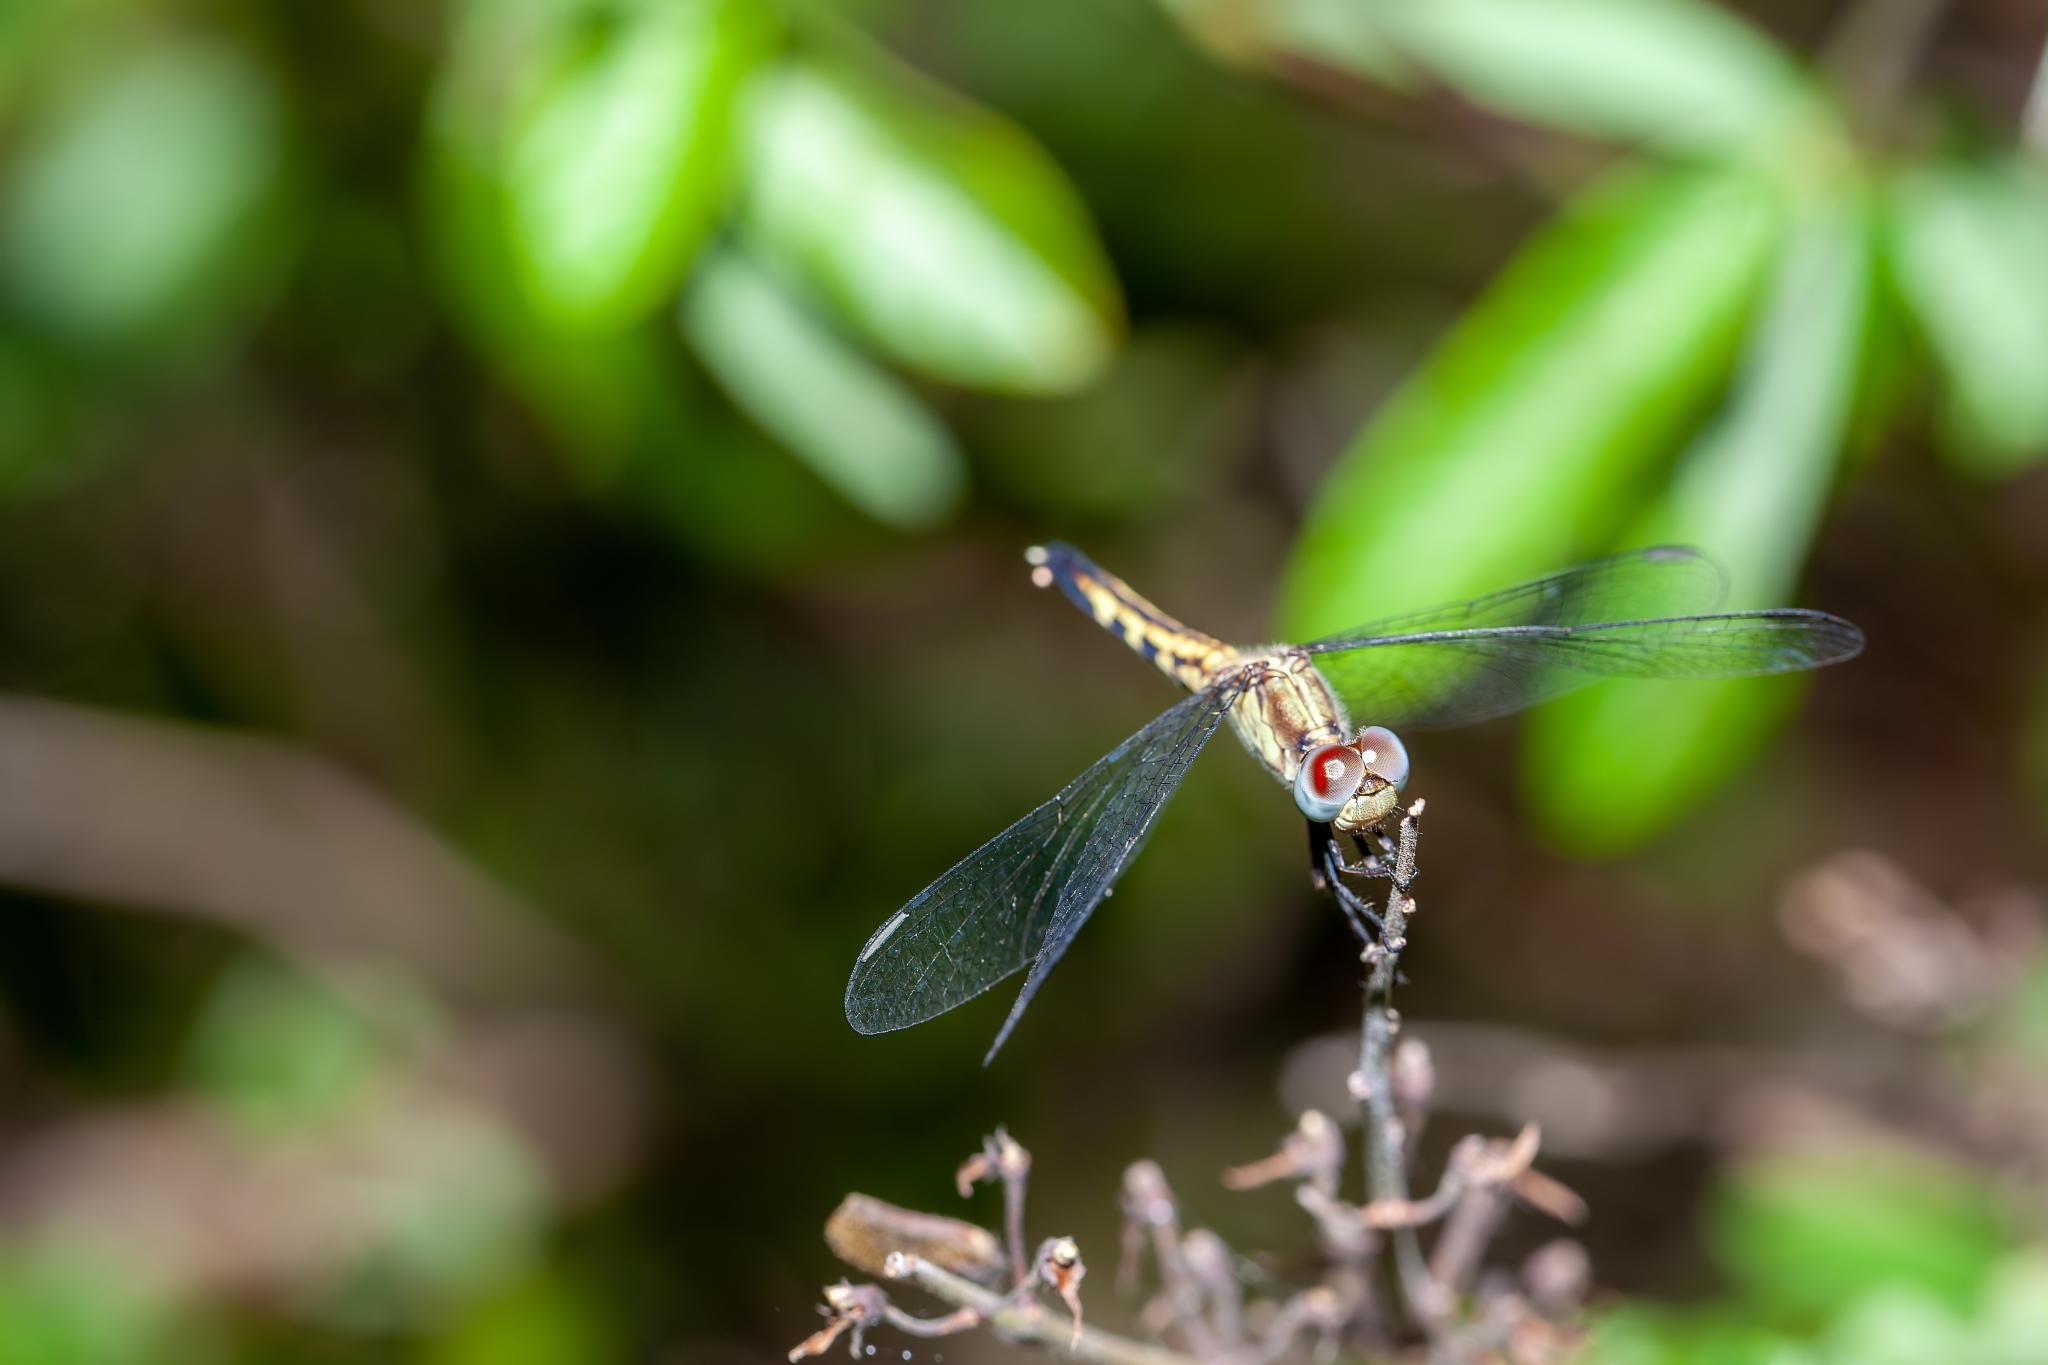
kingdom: Animalia
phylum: Arthropoda
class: Insecta
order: Odonata
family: Libellulidae
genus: Erythrodiplax
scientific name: Erythrodiplax minuscula
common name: Little blue dragonlet
